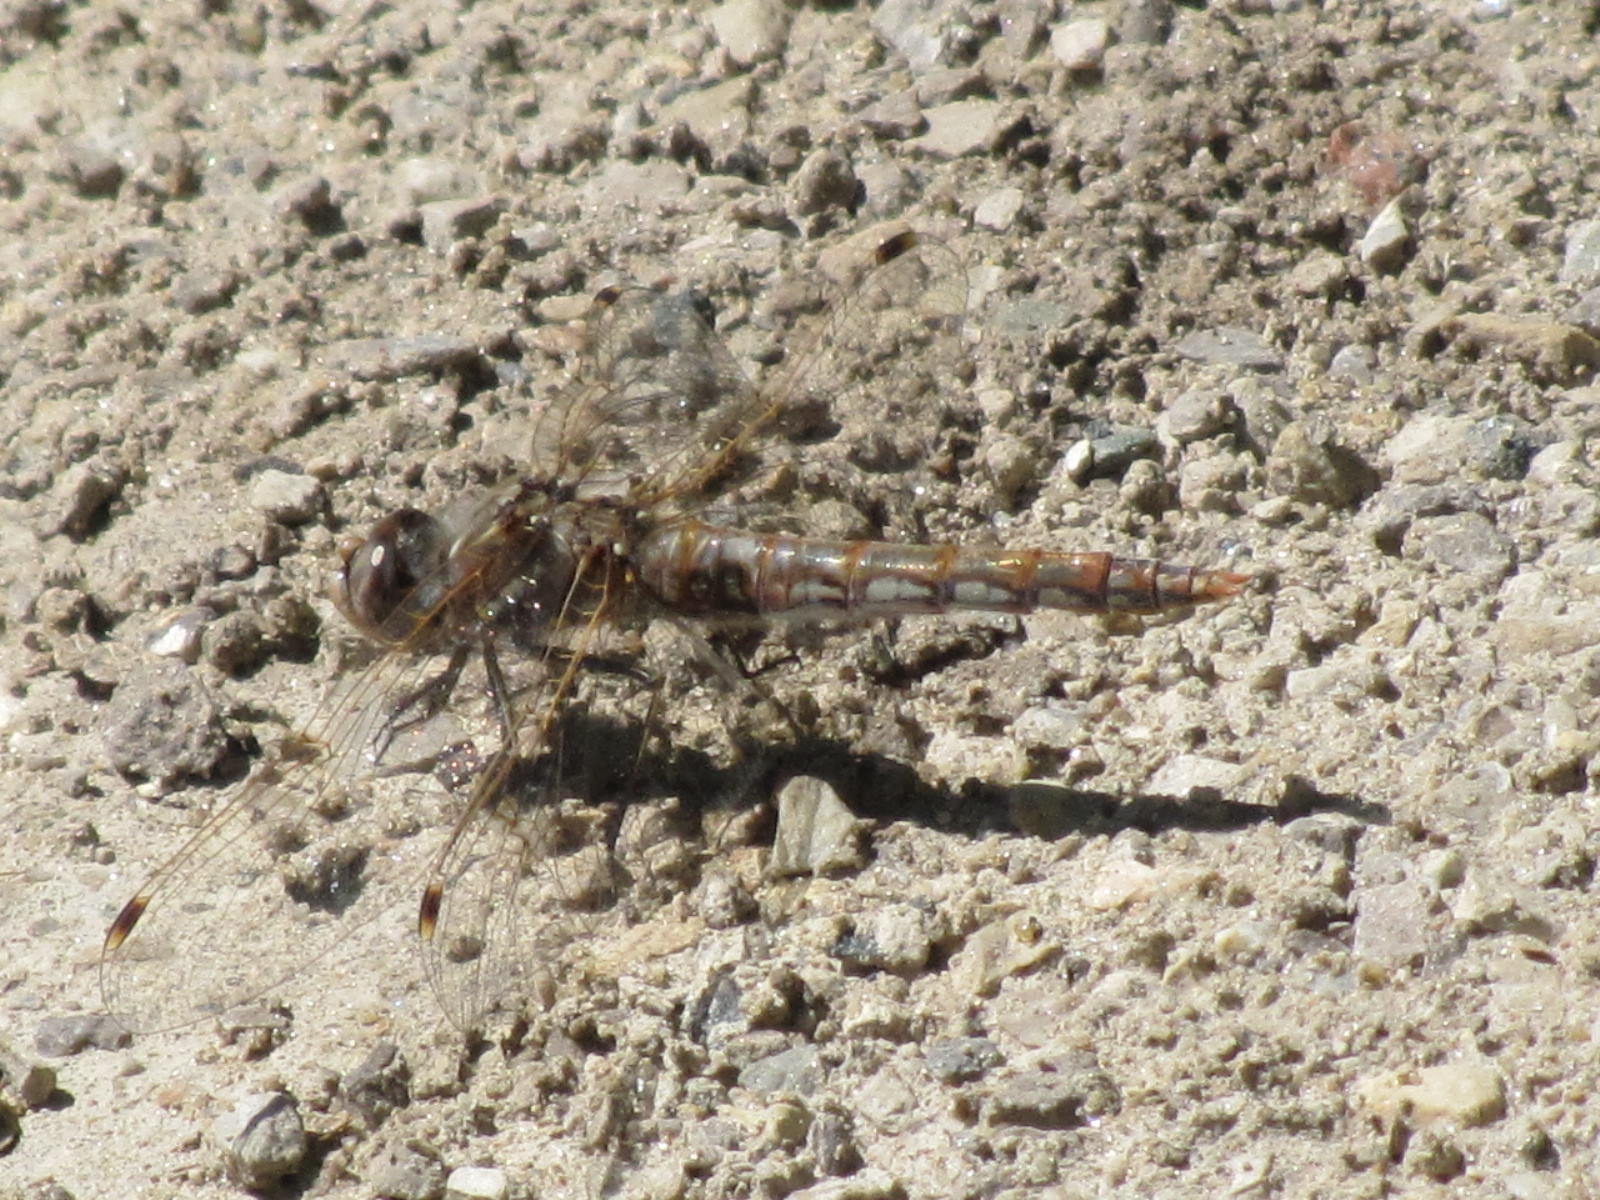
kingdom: Animalia
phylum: Arthropoda
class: Insecta
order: Odonata
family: Libellulidae
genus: Sympetrum
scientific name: Sympetrum corruptum
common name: Variegated meadowhawk
